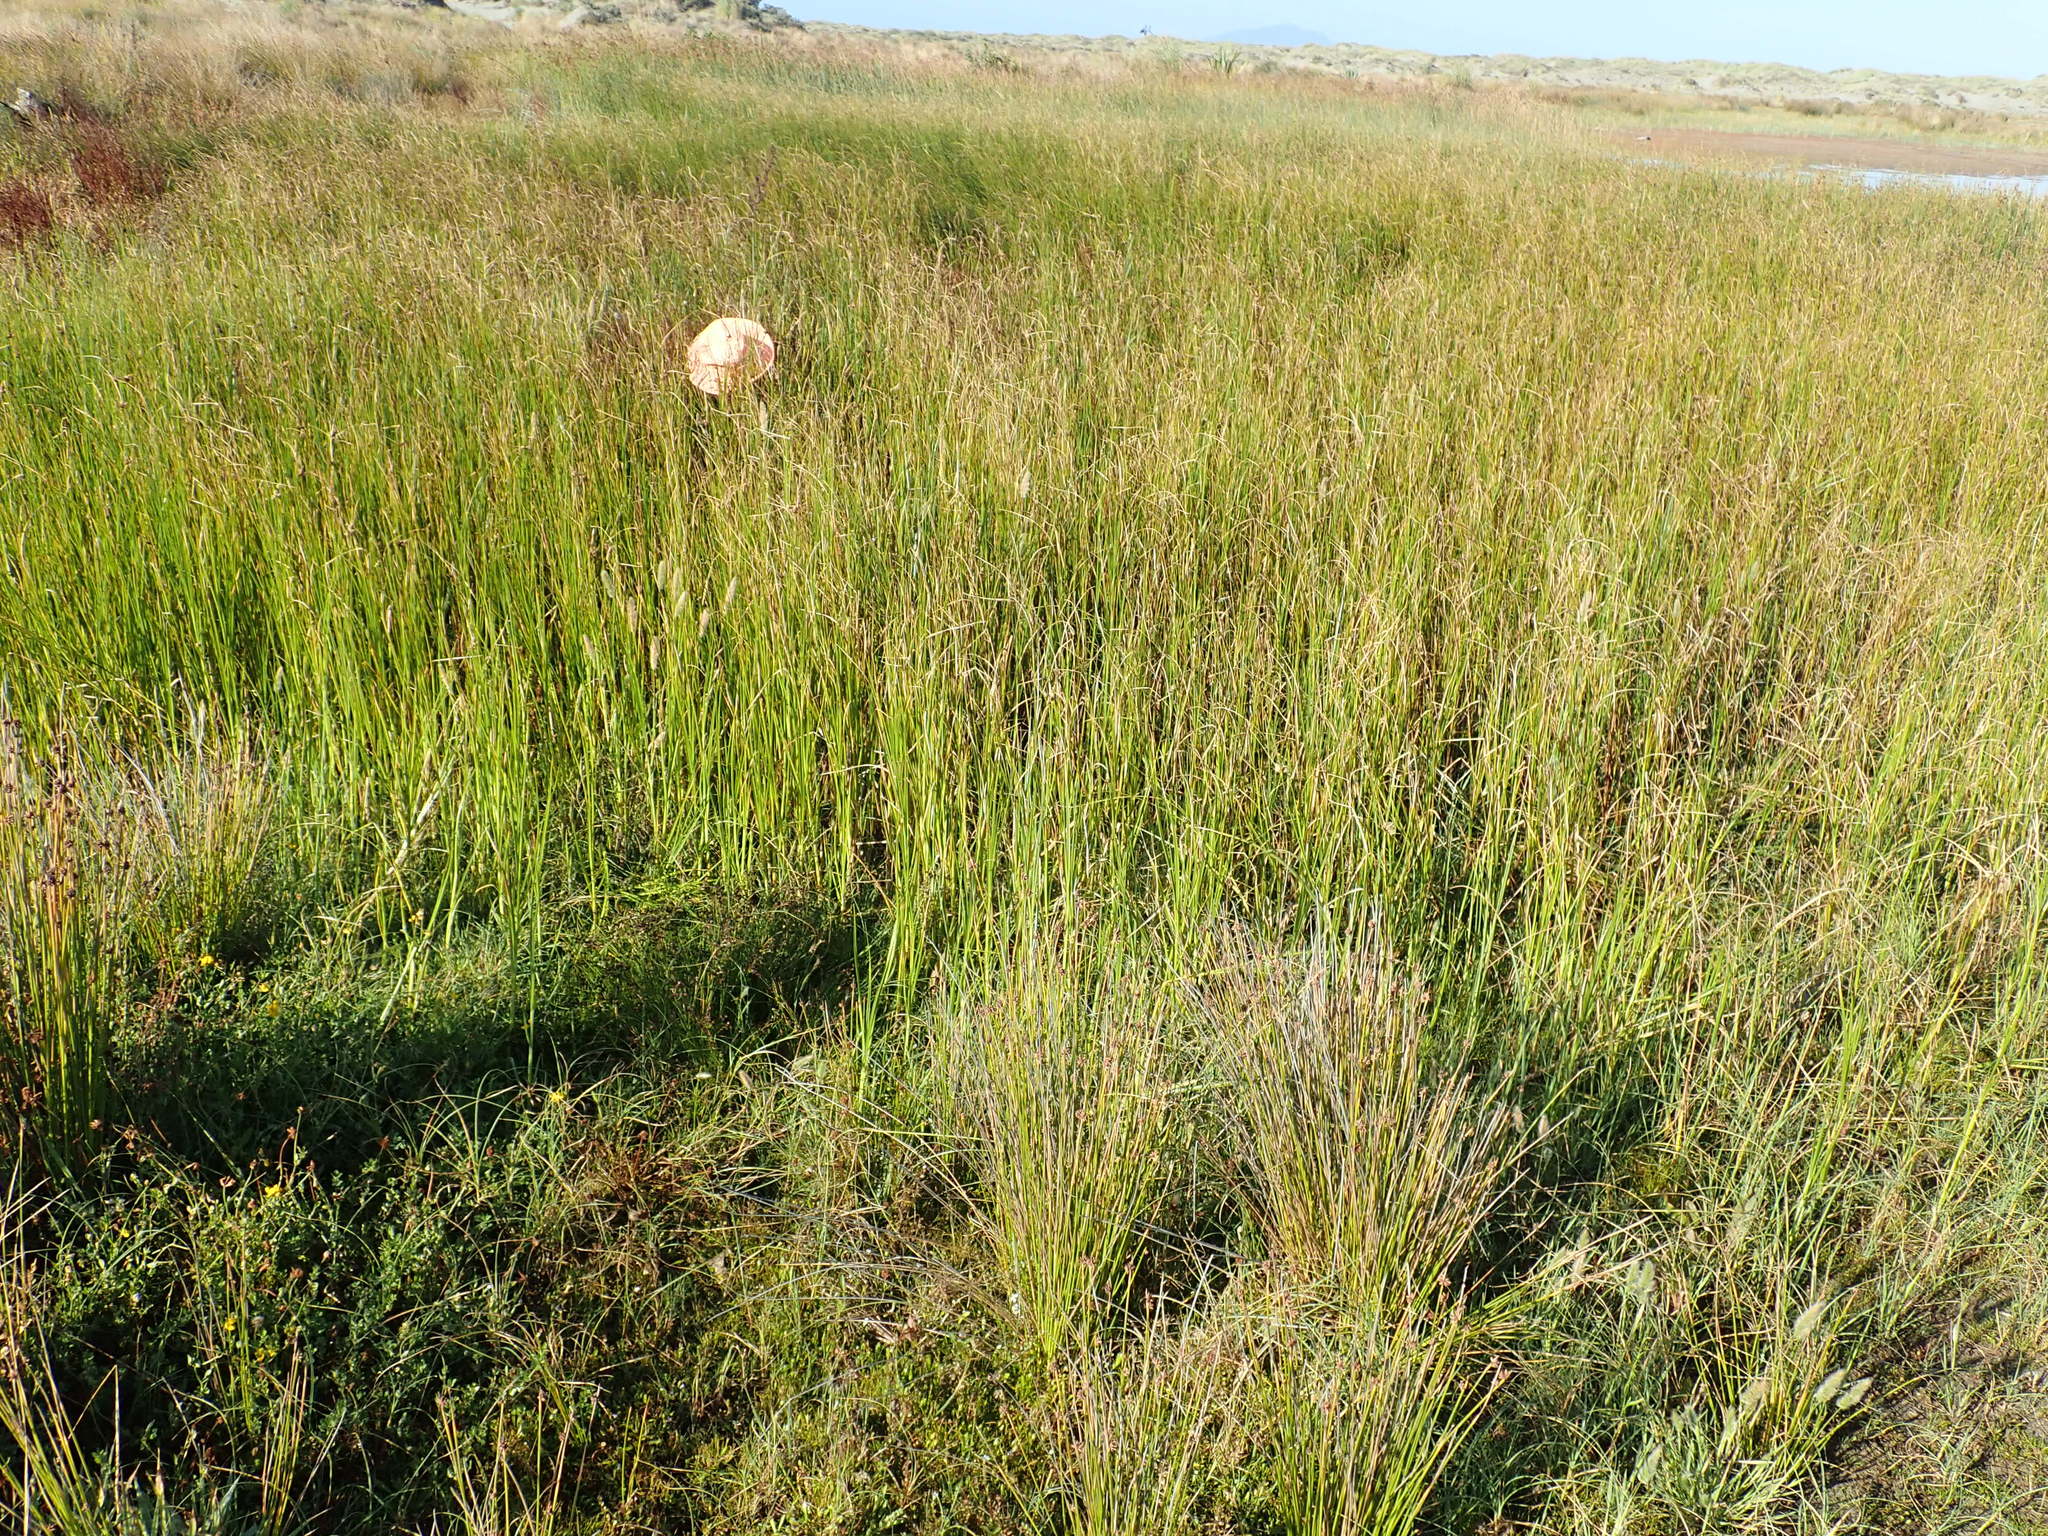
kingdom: Plantae
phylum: Tracheophyta
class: Polypodiopsida
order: Salviniales
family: Salviniaceae
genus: Azolla
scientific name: Azolla rubra
